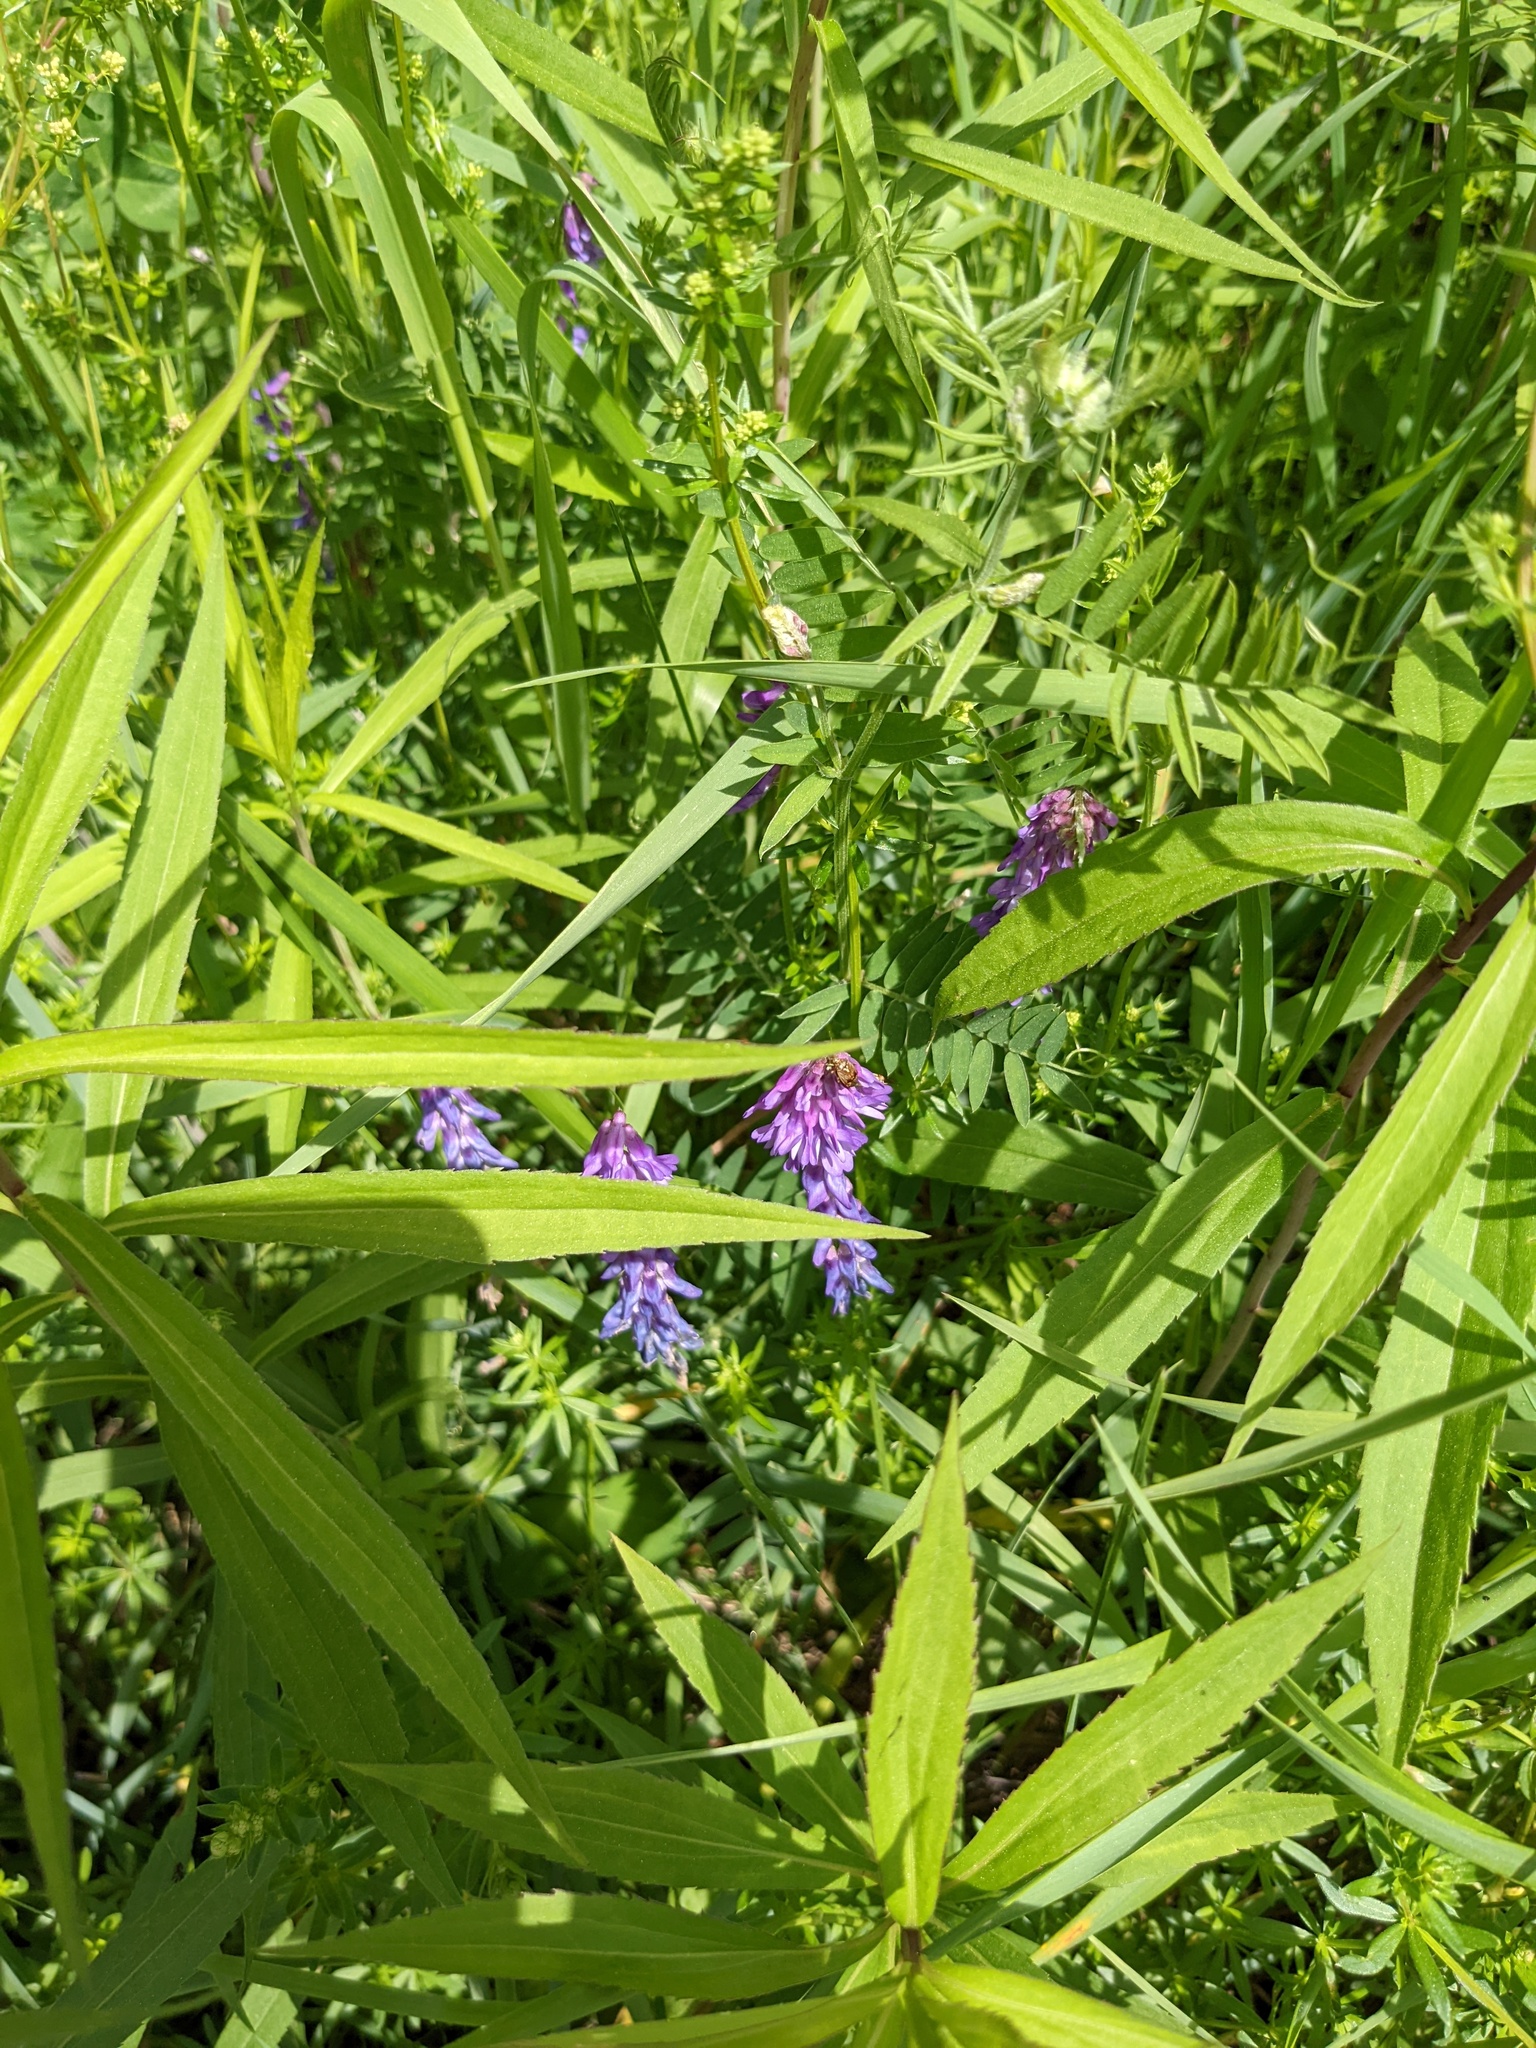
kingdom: Plantae
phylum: Tracheophyta
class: Magnoliopsida
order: Fabales
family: Fabaceae
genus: Vicia
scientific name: Vicia cracca
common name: Bird vetch
